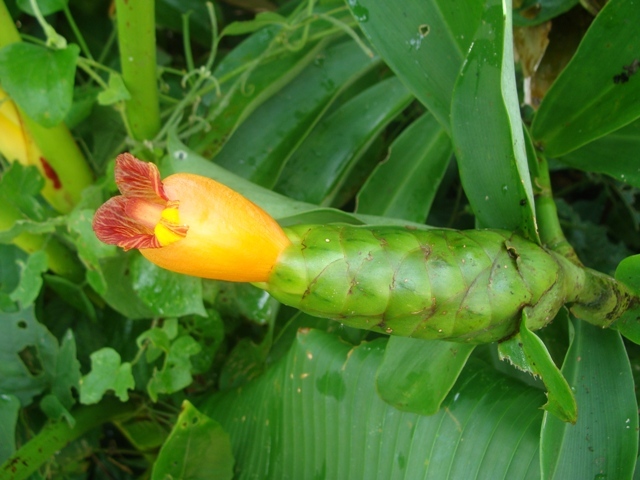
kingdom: Plantae
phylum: Tracheophyta
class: Liliopsida
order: Zingiberales
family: Costaceae
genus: Costus
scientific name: Costus pictus
